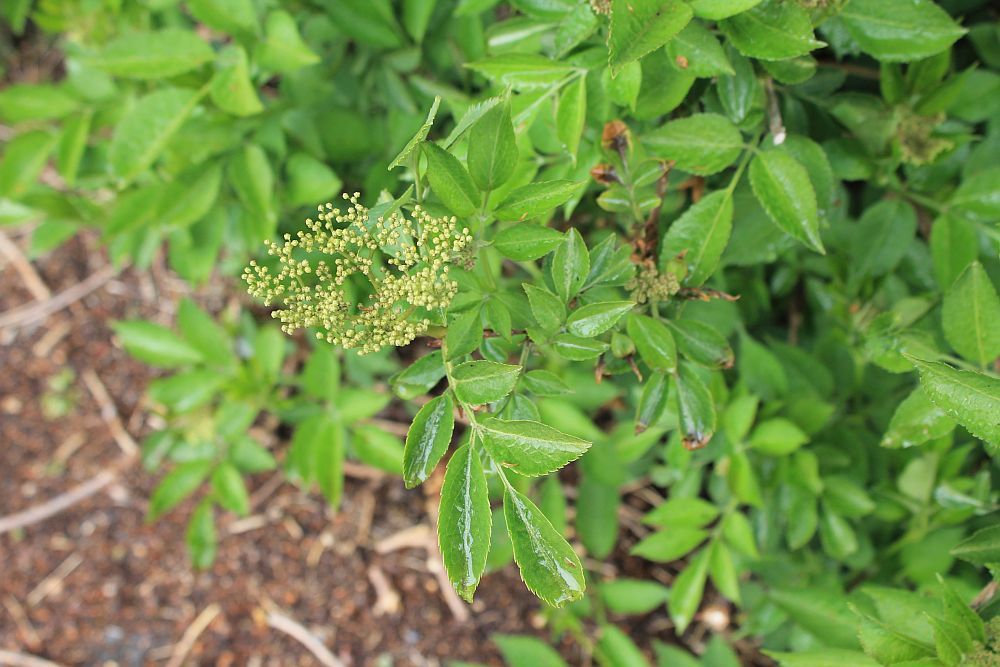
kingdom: Plantae
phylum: Tracheophyta
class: Magnoliopsida
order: Dipsacales
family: Viburnaceae
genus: Sambucus
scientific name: Sambucus nigra
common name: Elder
